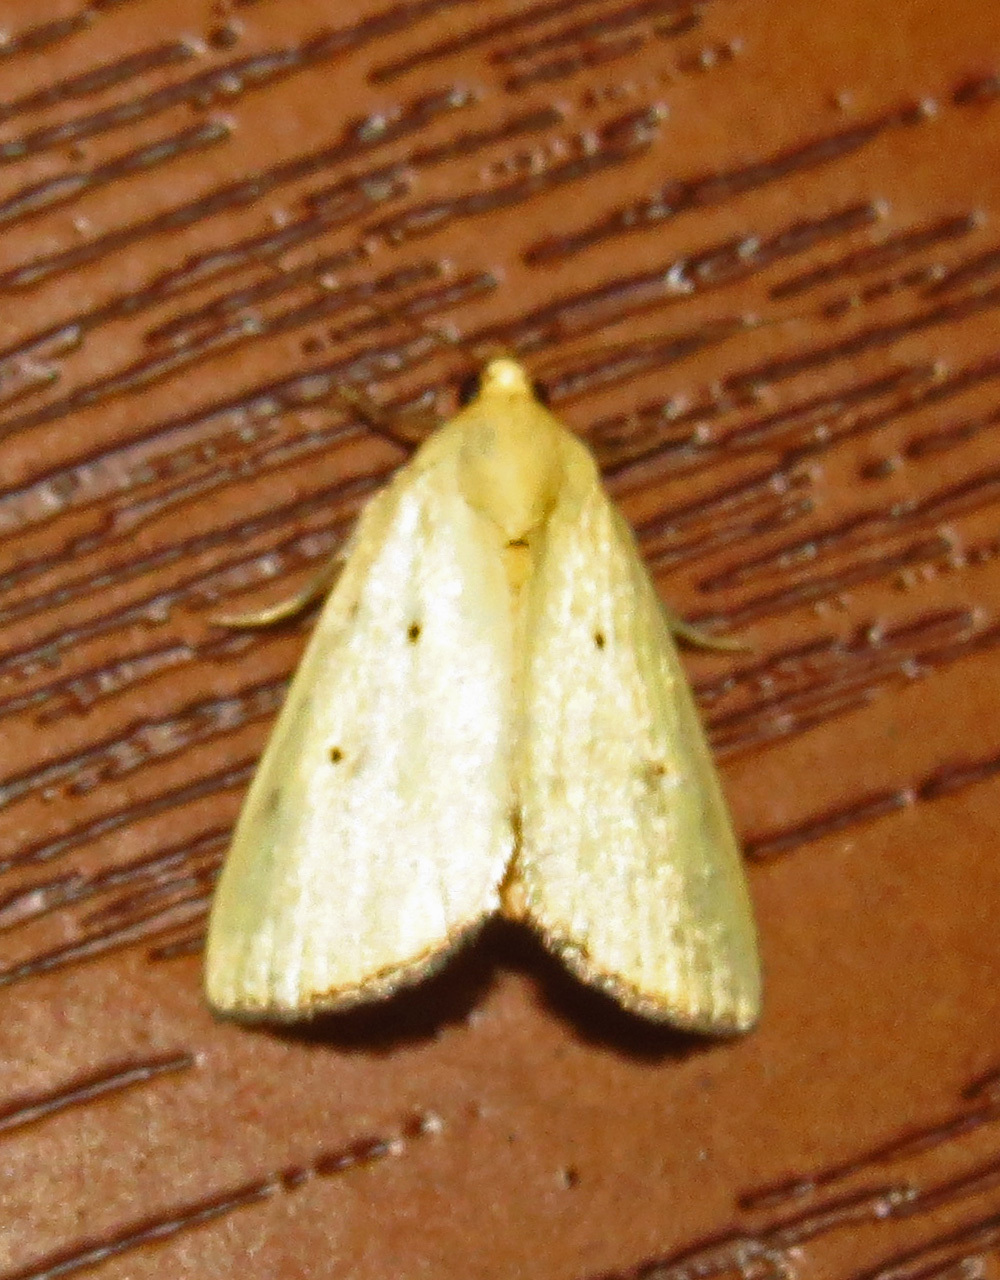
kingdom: Animalia
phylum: Arthropoda
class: Insecta
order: Lepidoptera
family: Noctuidae
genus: Marimatha
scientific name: Marimatha nigrofimbria
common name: Black-bordered lemon moth
